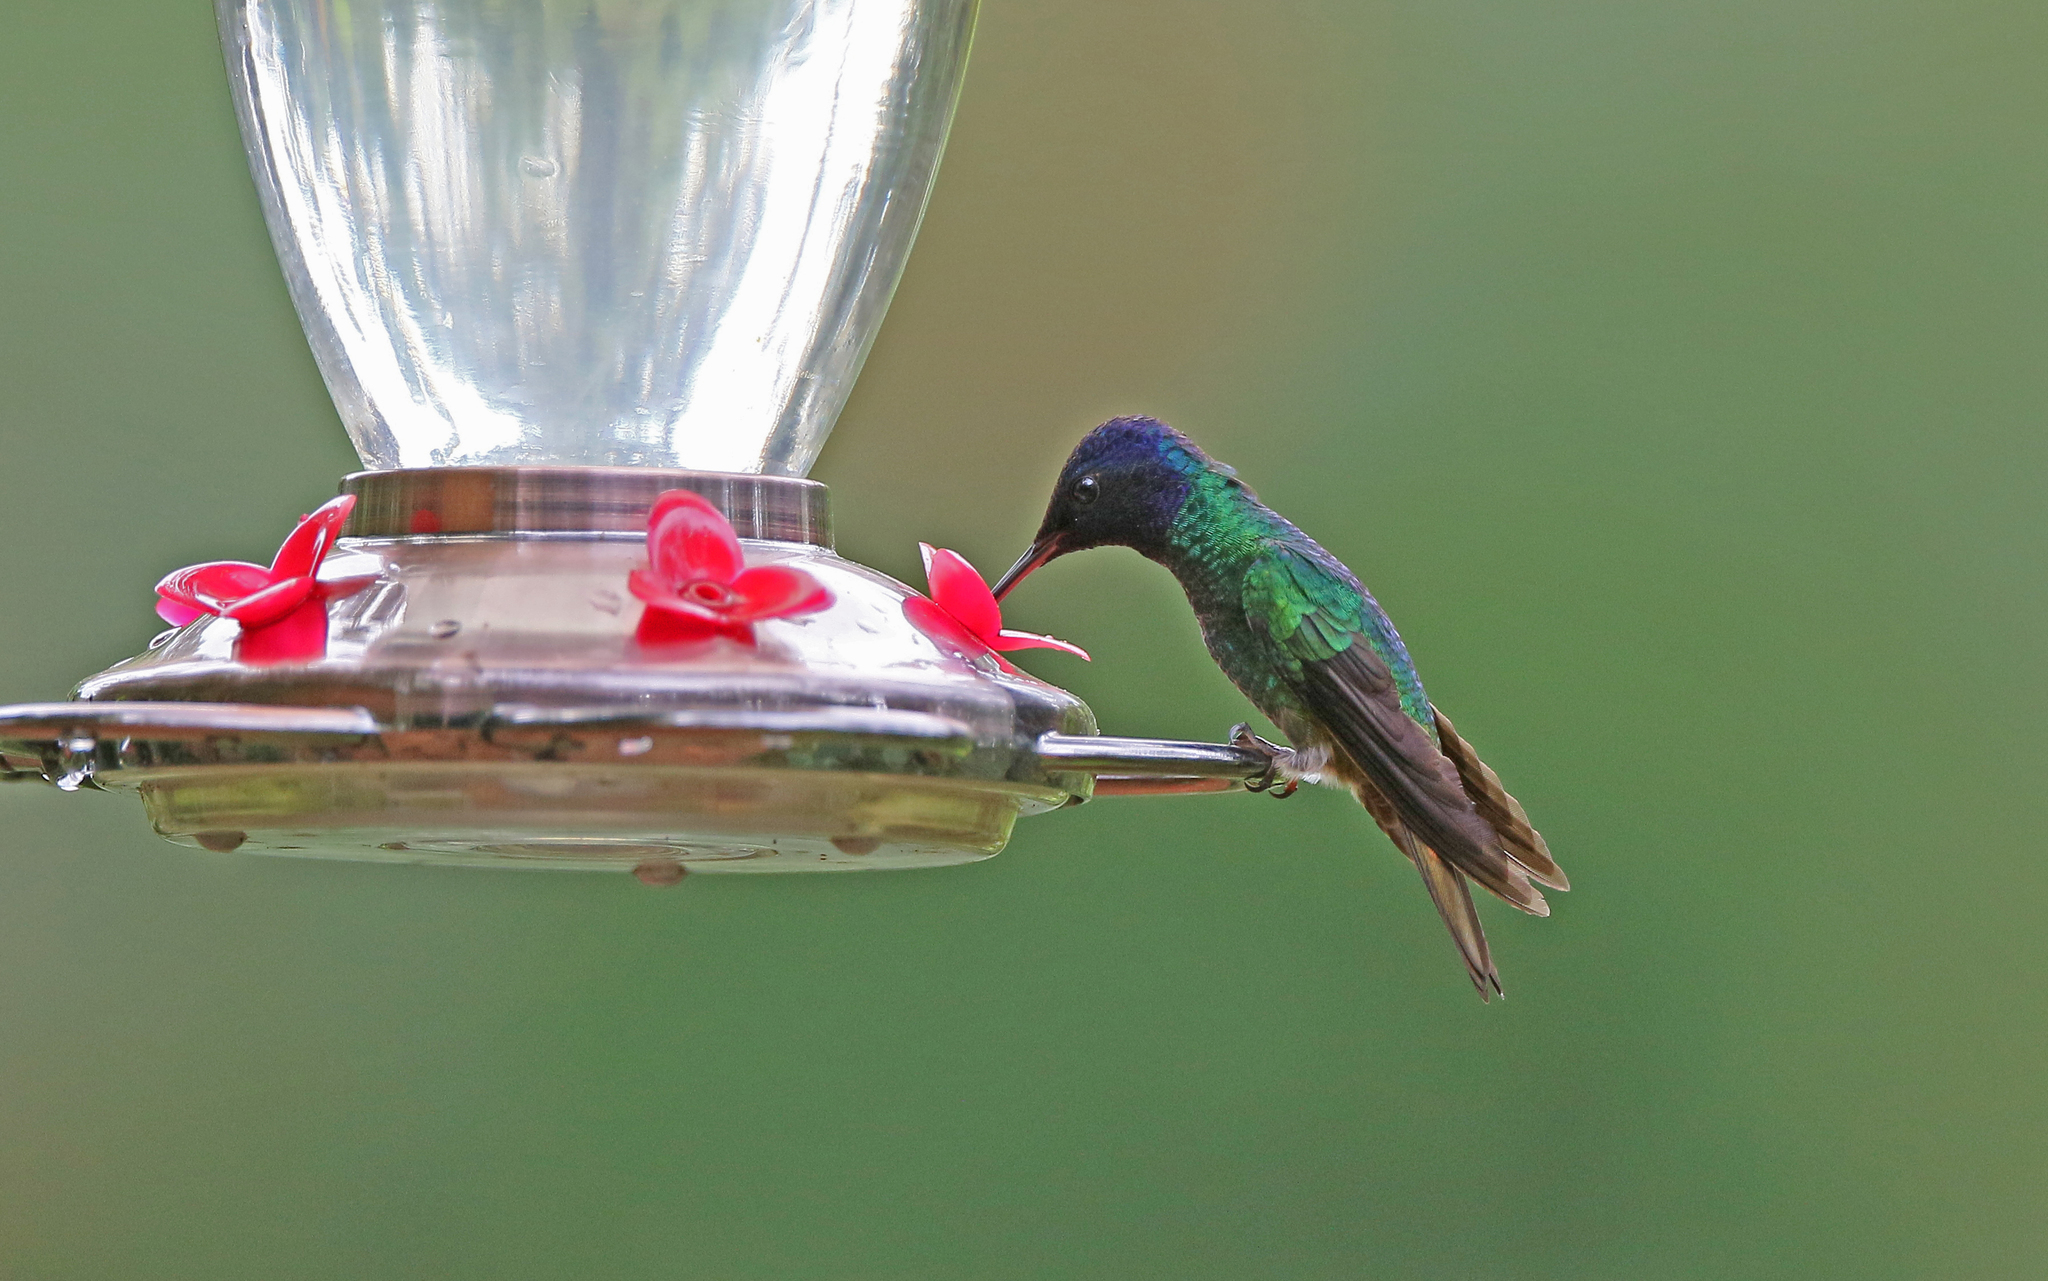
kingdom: Animalia
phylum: Chordata
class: Aves
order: Apodiformes
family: Trochilidae
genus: Chrysuronia
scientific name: Chrysuronia oenone
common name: Golden-tailed sapphire
